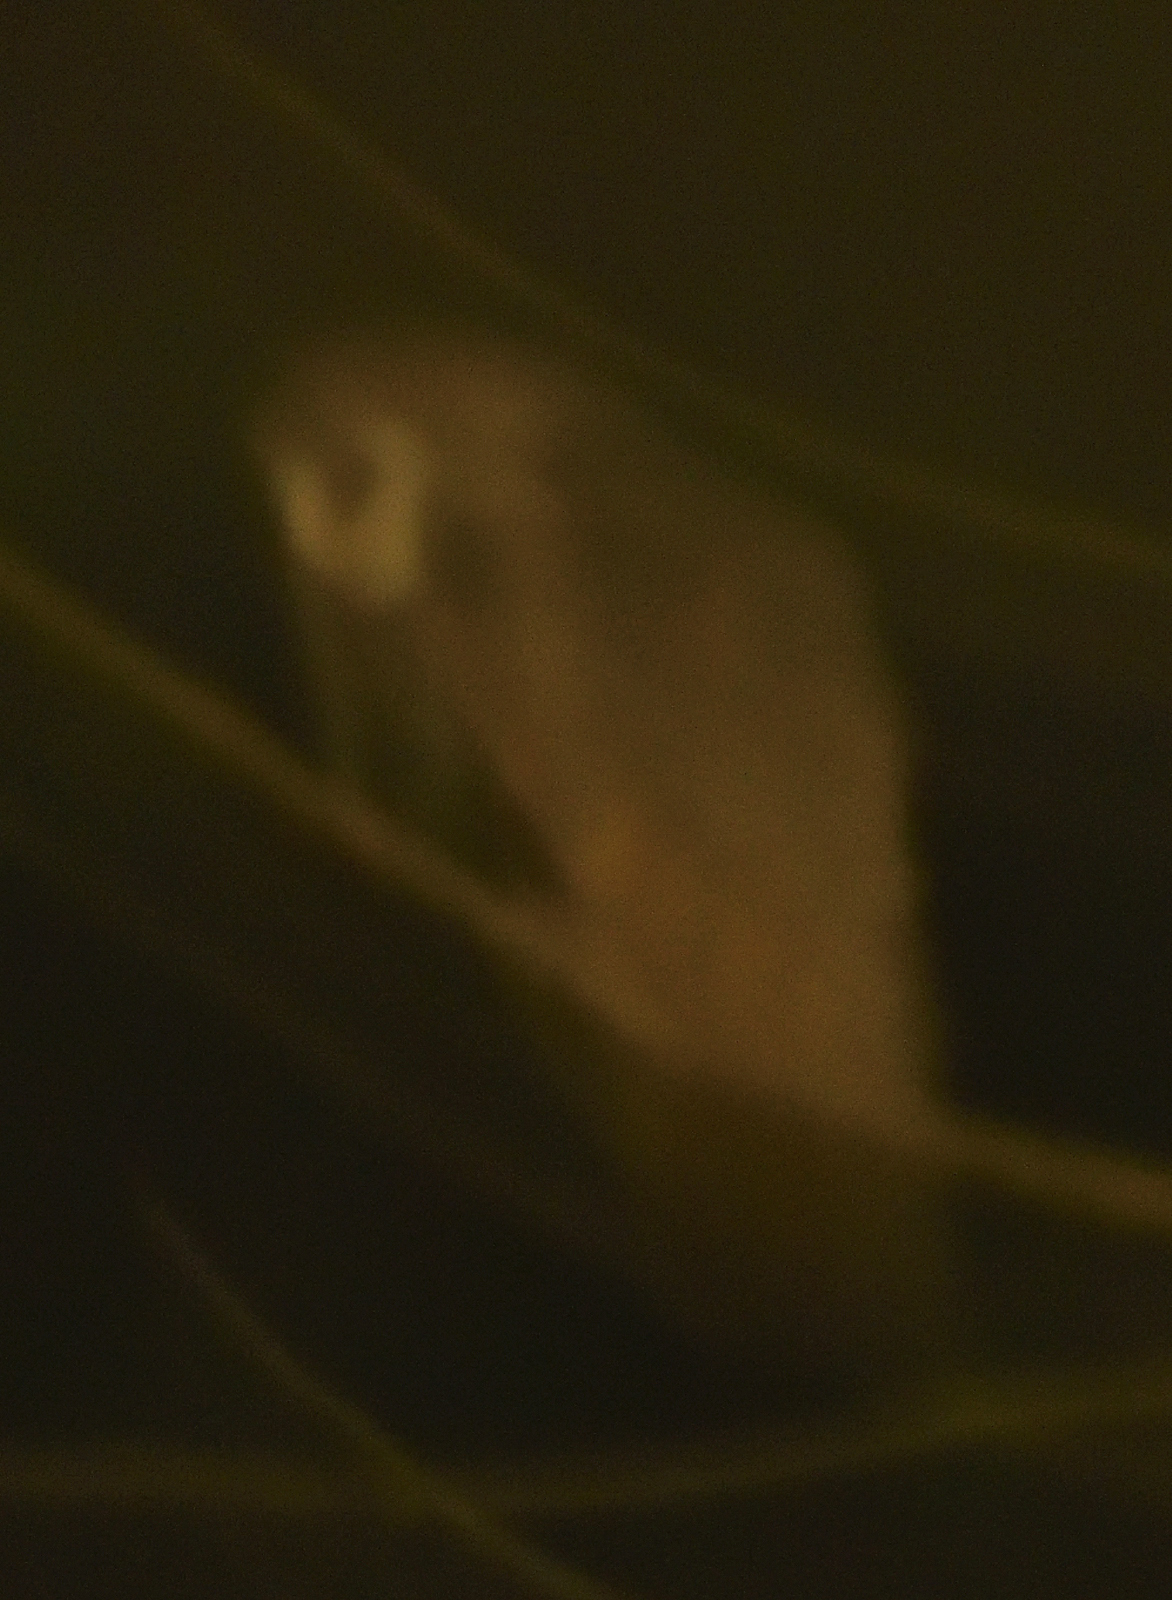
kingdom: Animalia
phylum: Chordata
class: Aves
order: Strigiformes
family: Tytonidae
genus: Tyto
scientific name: Tyto alba
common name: Barn owl
